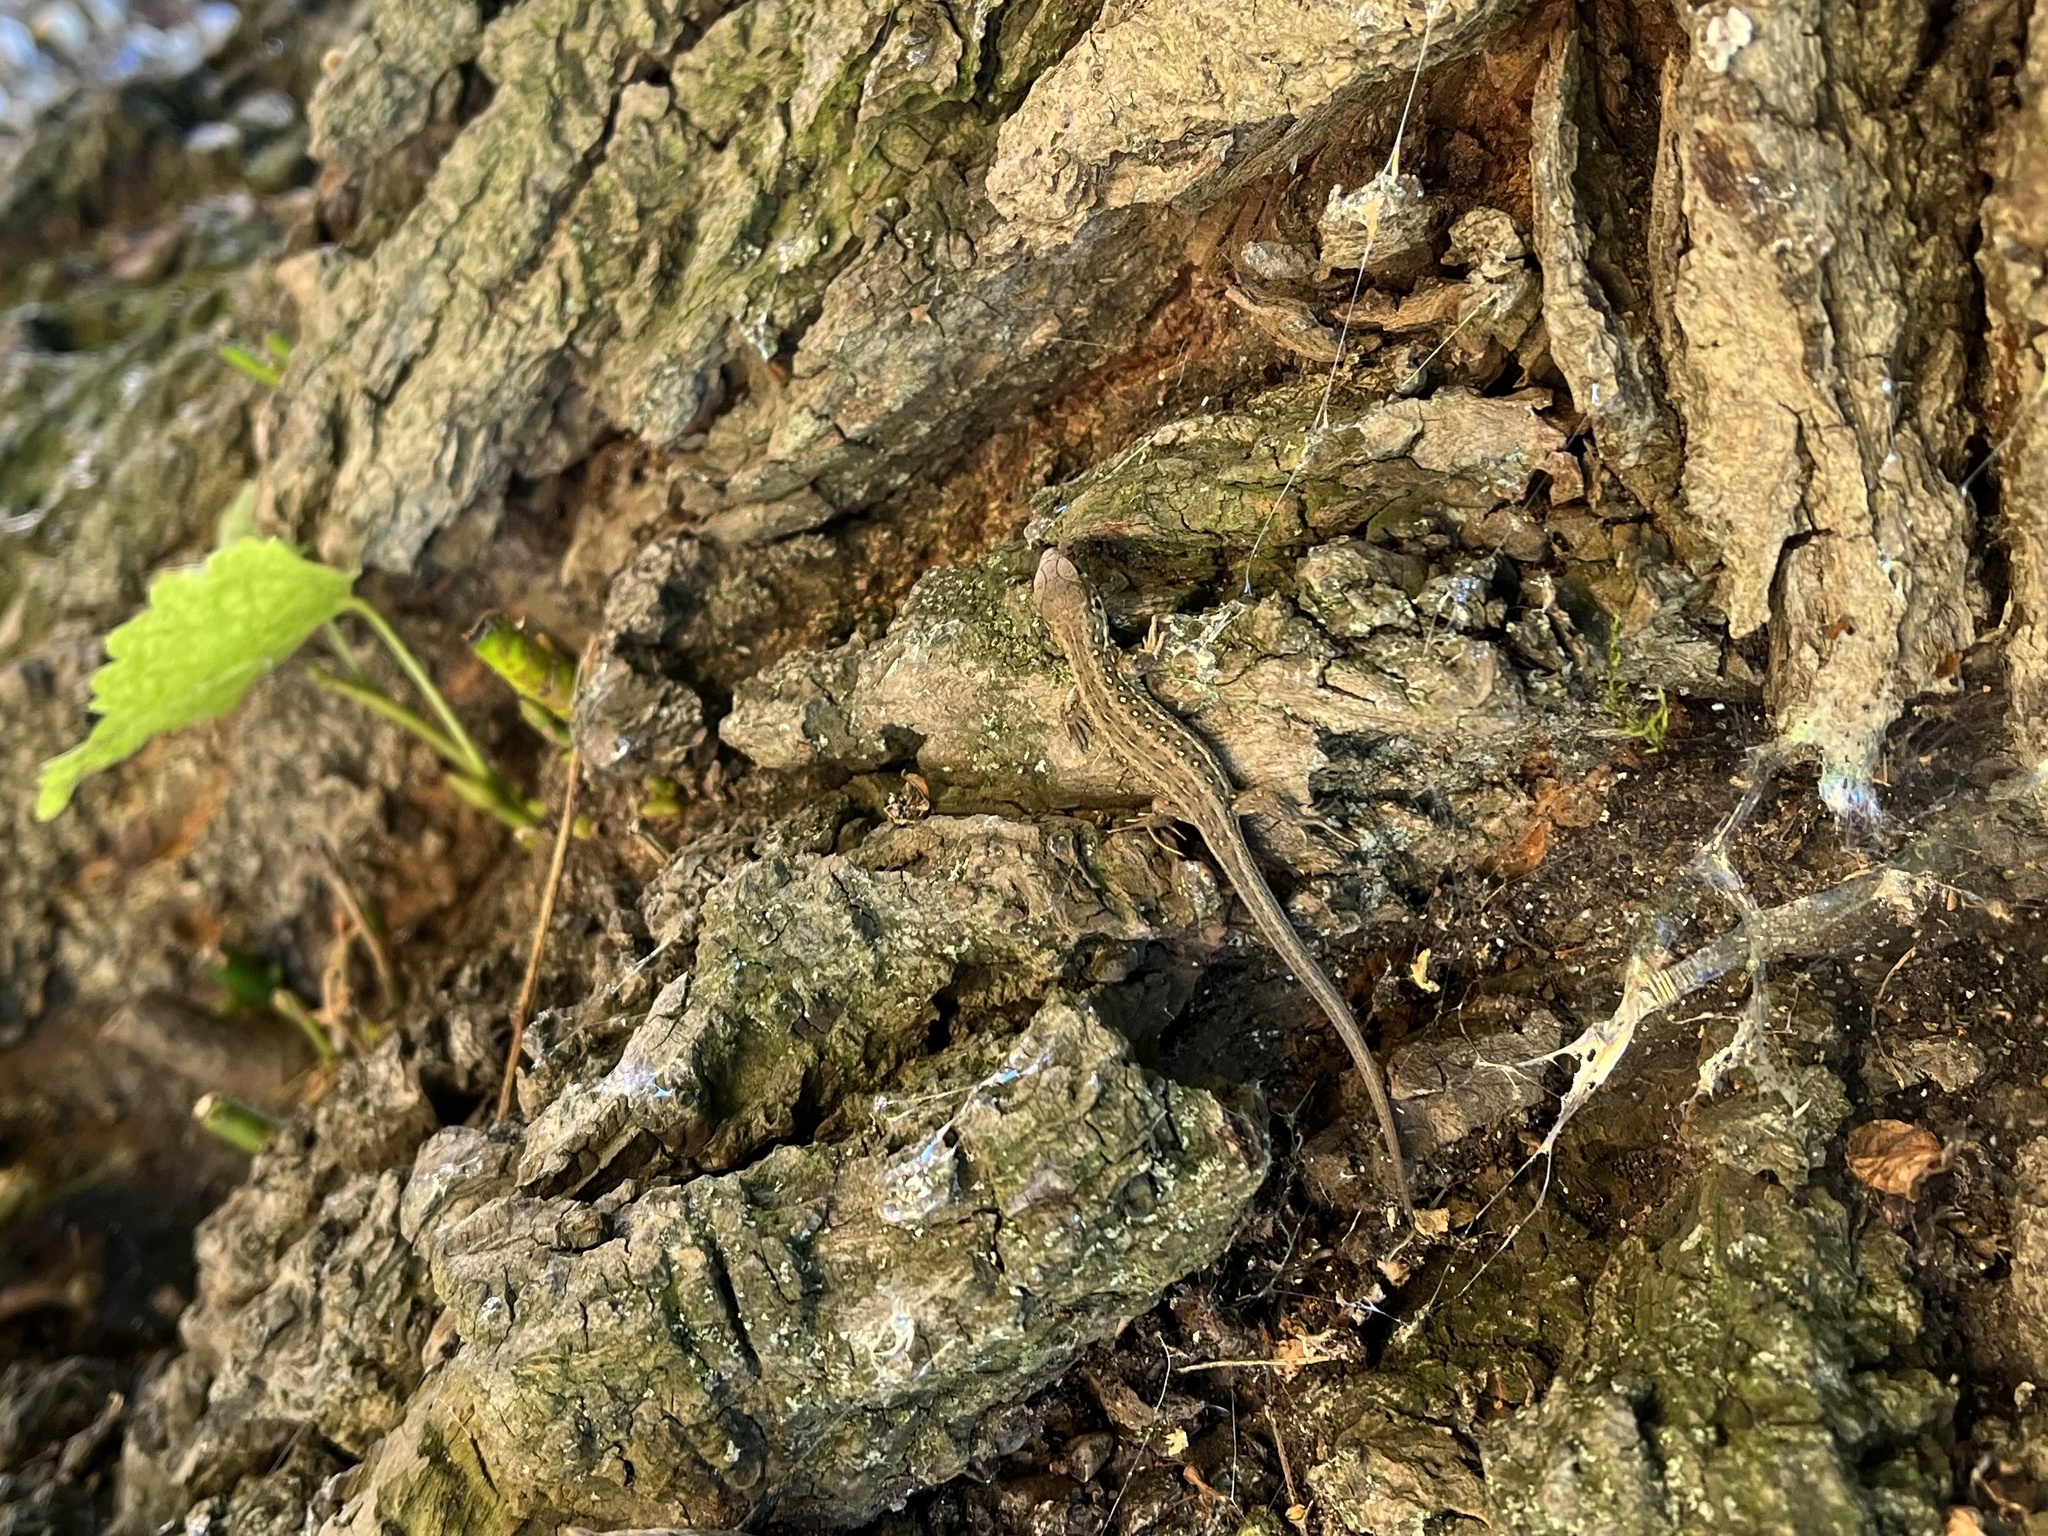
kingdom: Animalia
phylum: Chordata
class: Squamata
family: Lacertidae
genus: Lacerta
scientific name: Lacerta agilis
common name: Sand lizard
